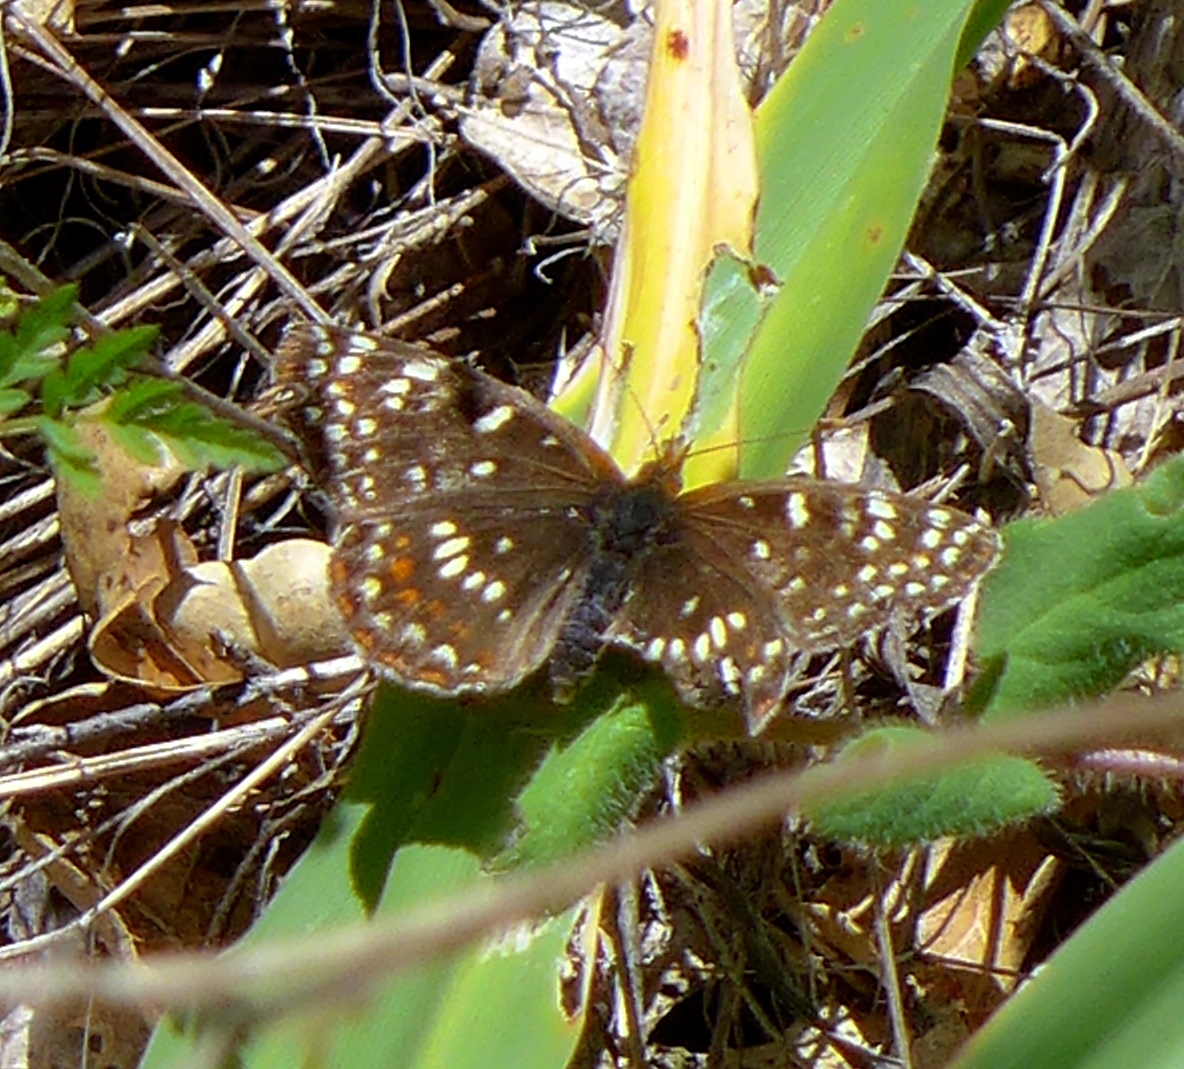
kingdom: Animalia
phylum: Arthropoda
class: Insecta
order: Lepidoptera
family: Nymphalidae
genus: Chlosyne
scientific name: Chlosyne palla
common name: Northern checkerspot
